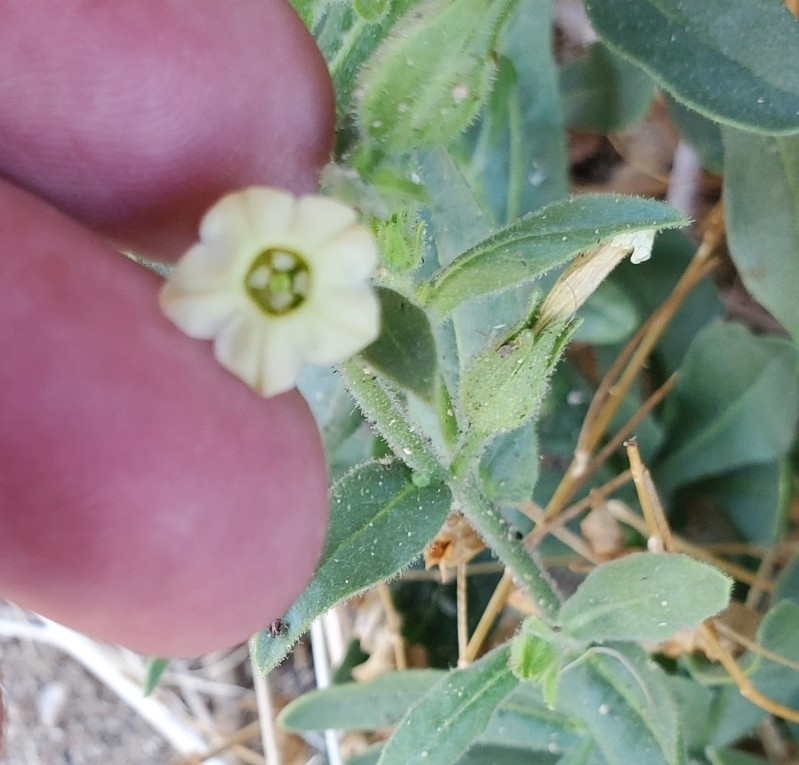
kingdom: Plantae
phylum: Tracheophyta
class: Magnoliopsida
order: Solanales
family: Solanaceae
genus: Nicotiana
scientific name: Nicotiana obtusifolia
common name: Desert tobacco
